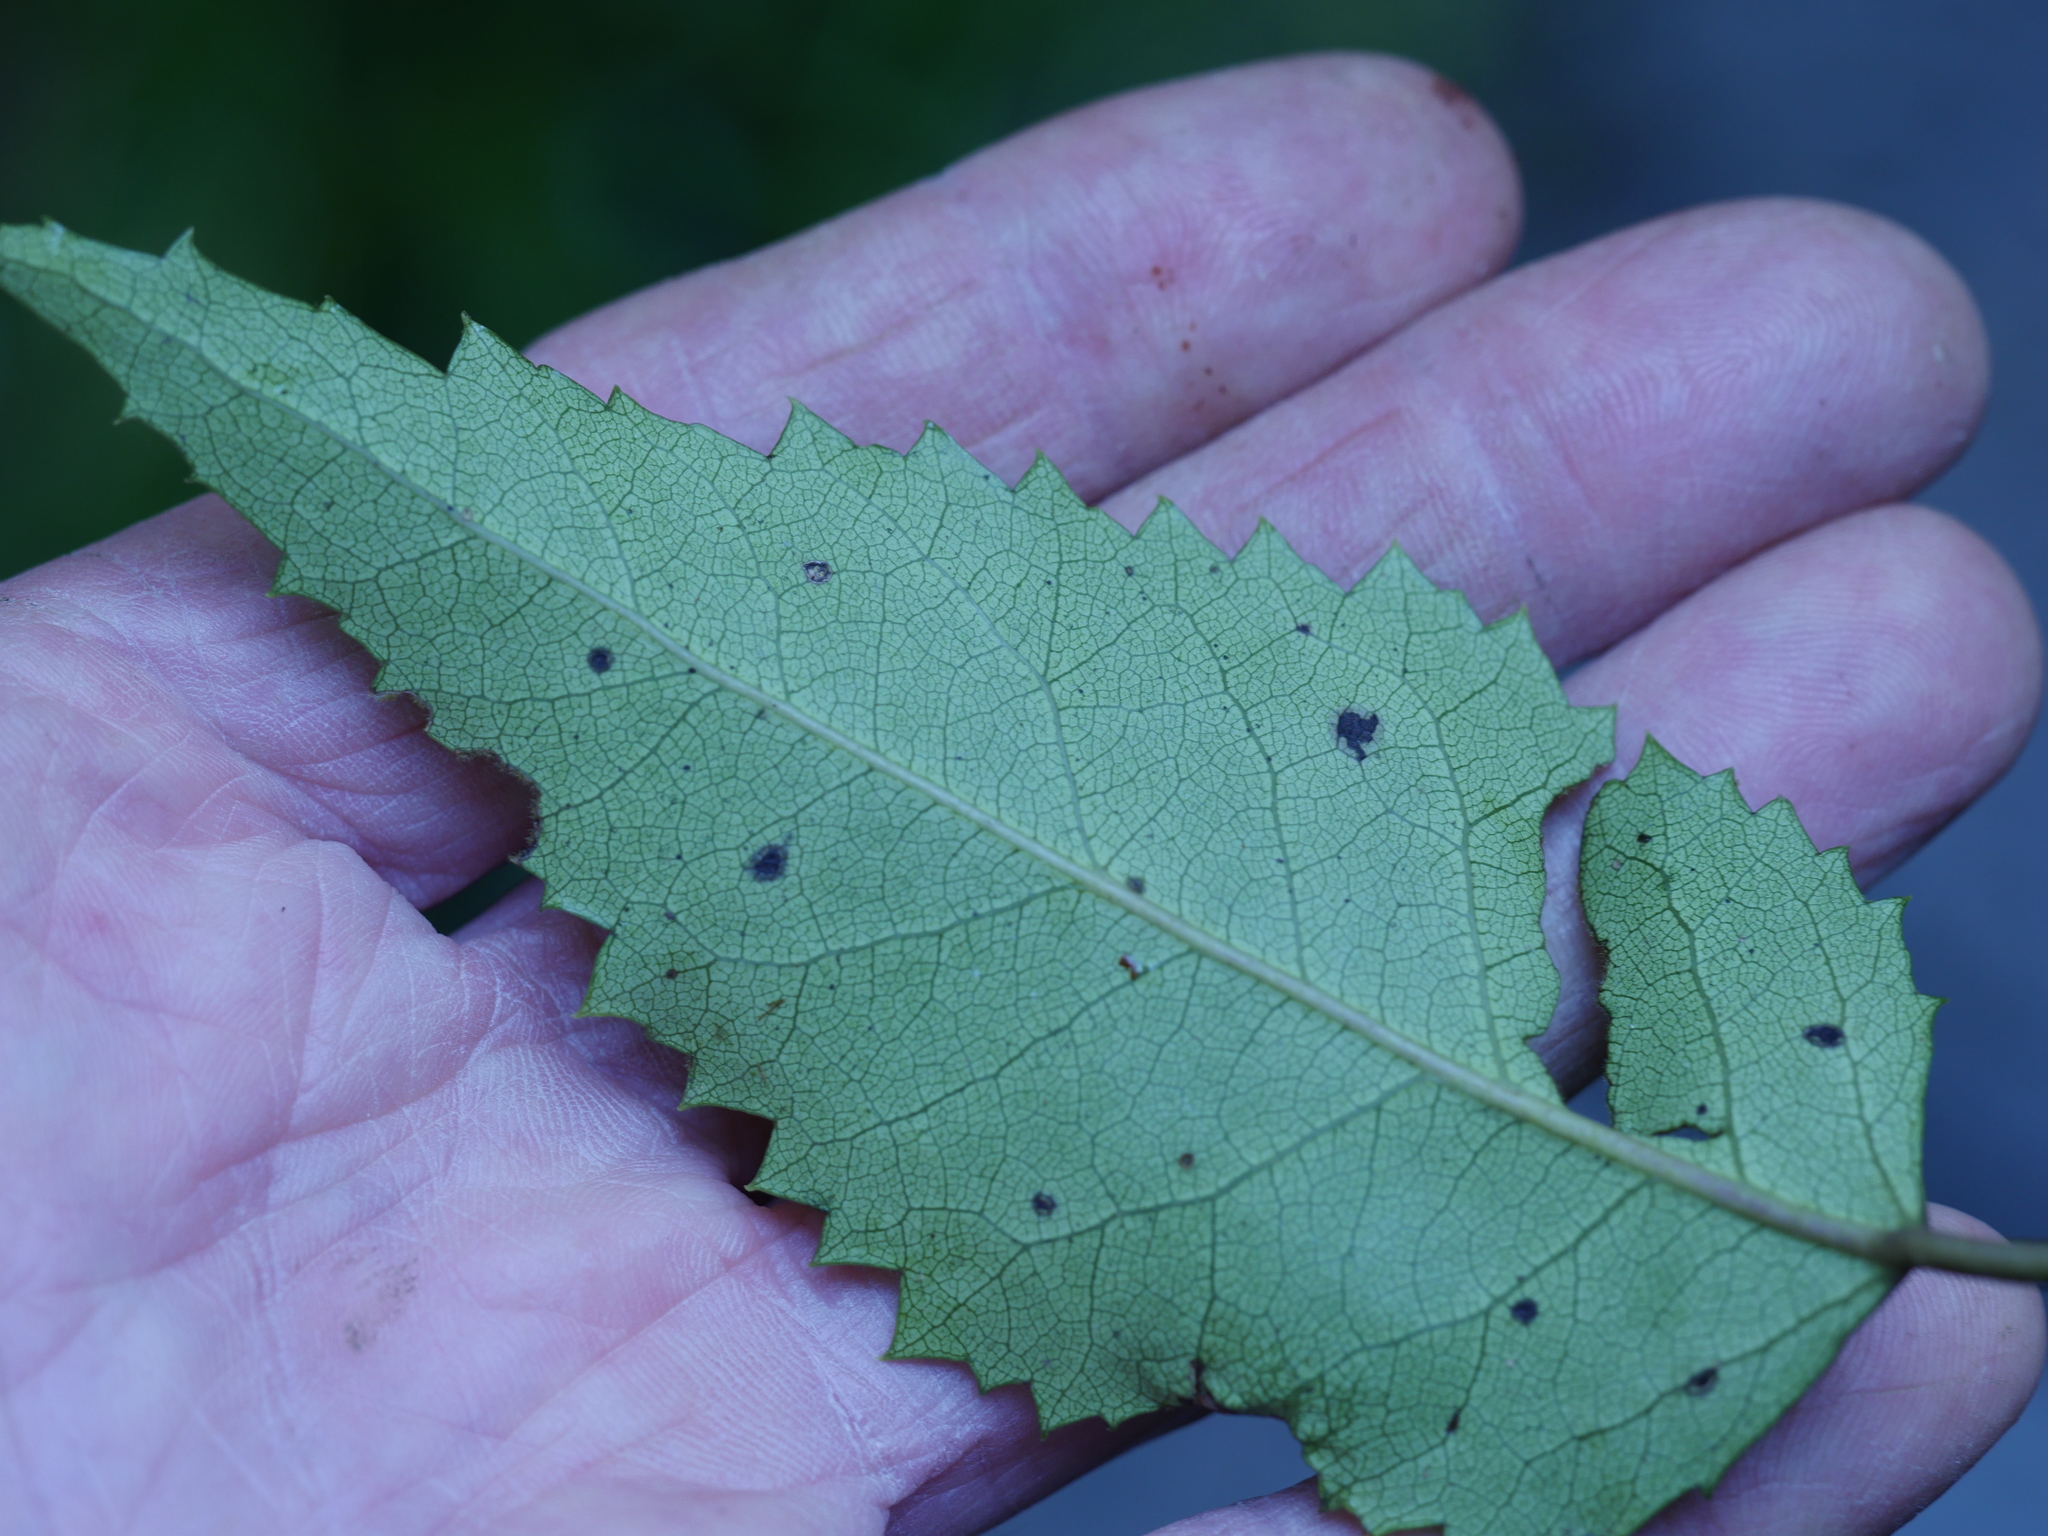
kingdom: Plantae
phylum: Tracheophyta
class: Magnoliopsida
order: Malvales
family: Malvaceae
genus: Hoheria
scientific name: Hoheria populnea
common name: Lacebark
